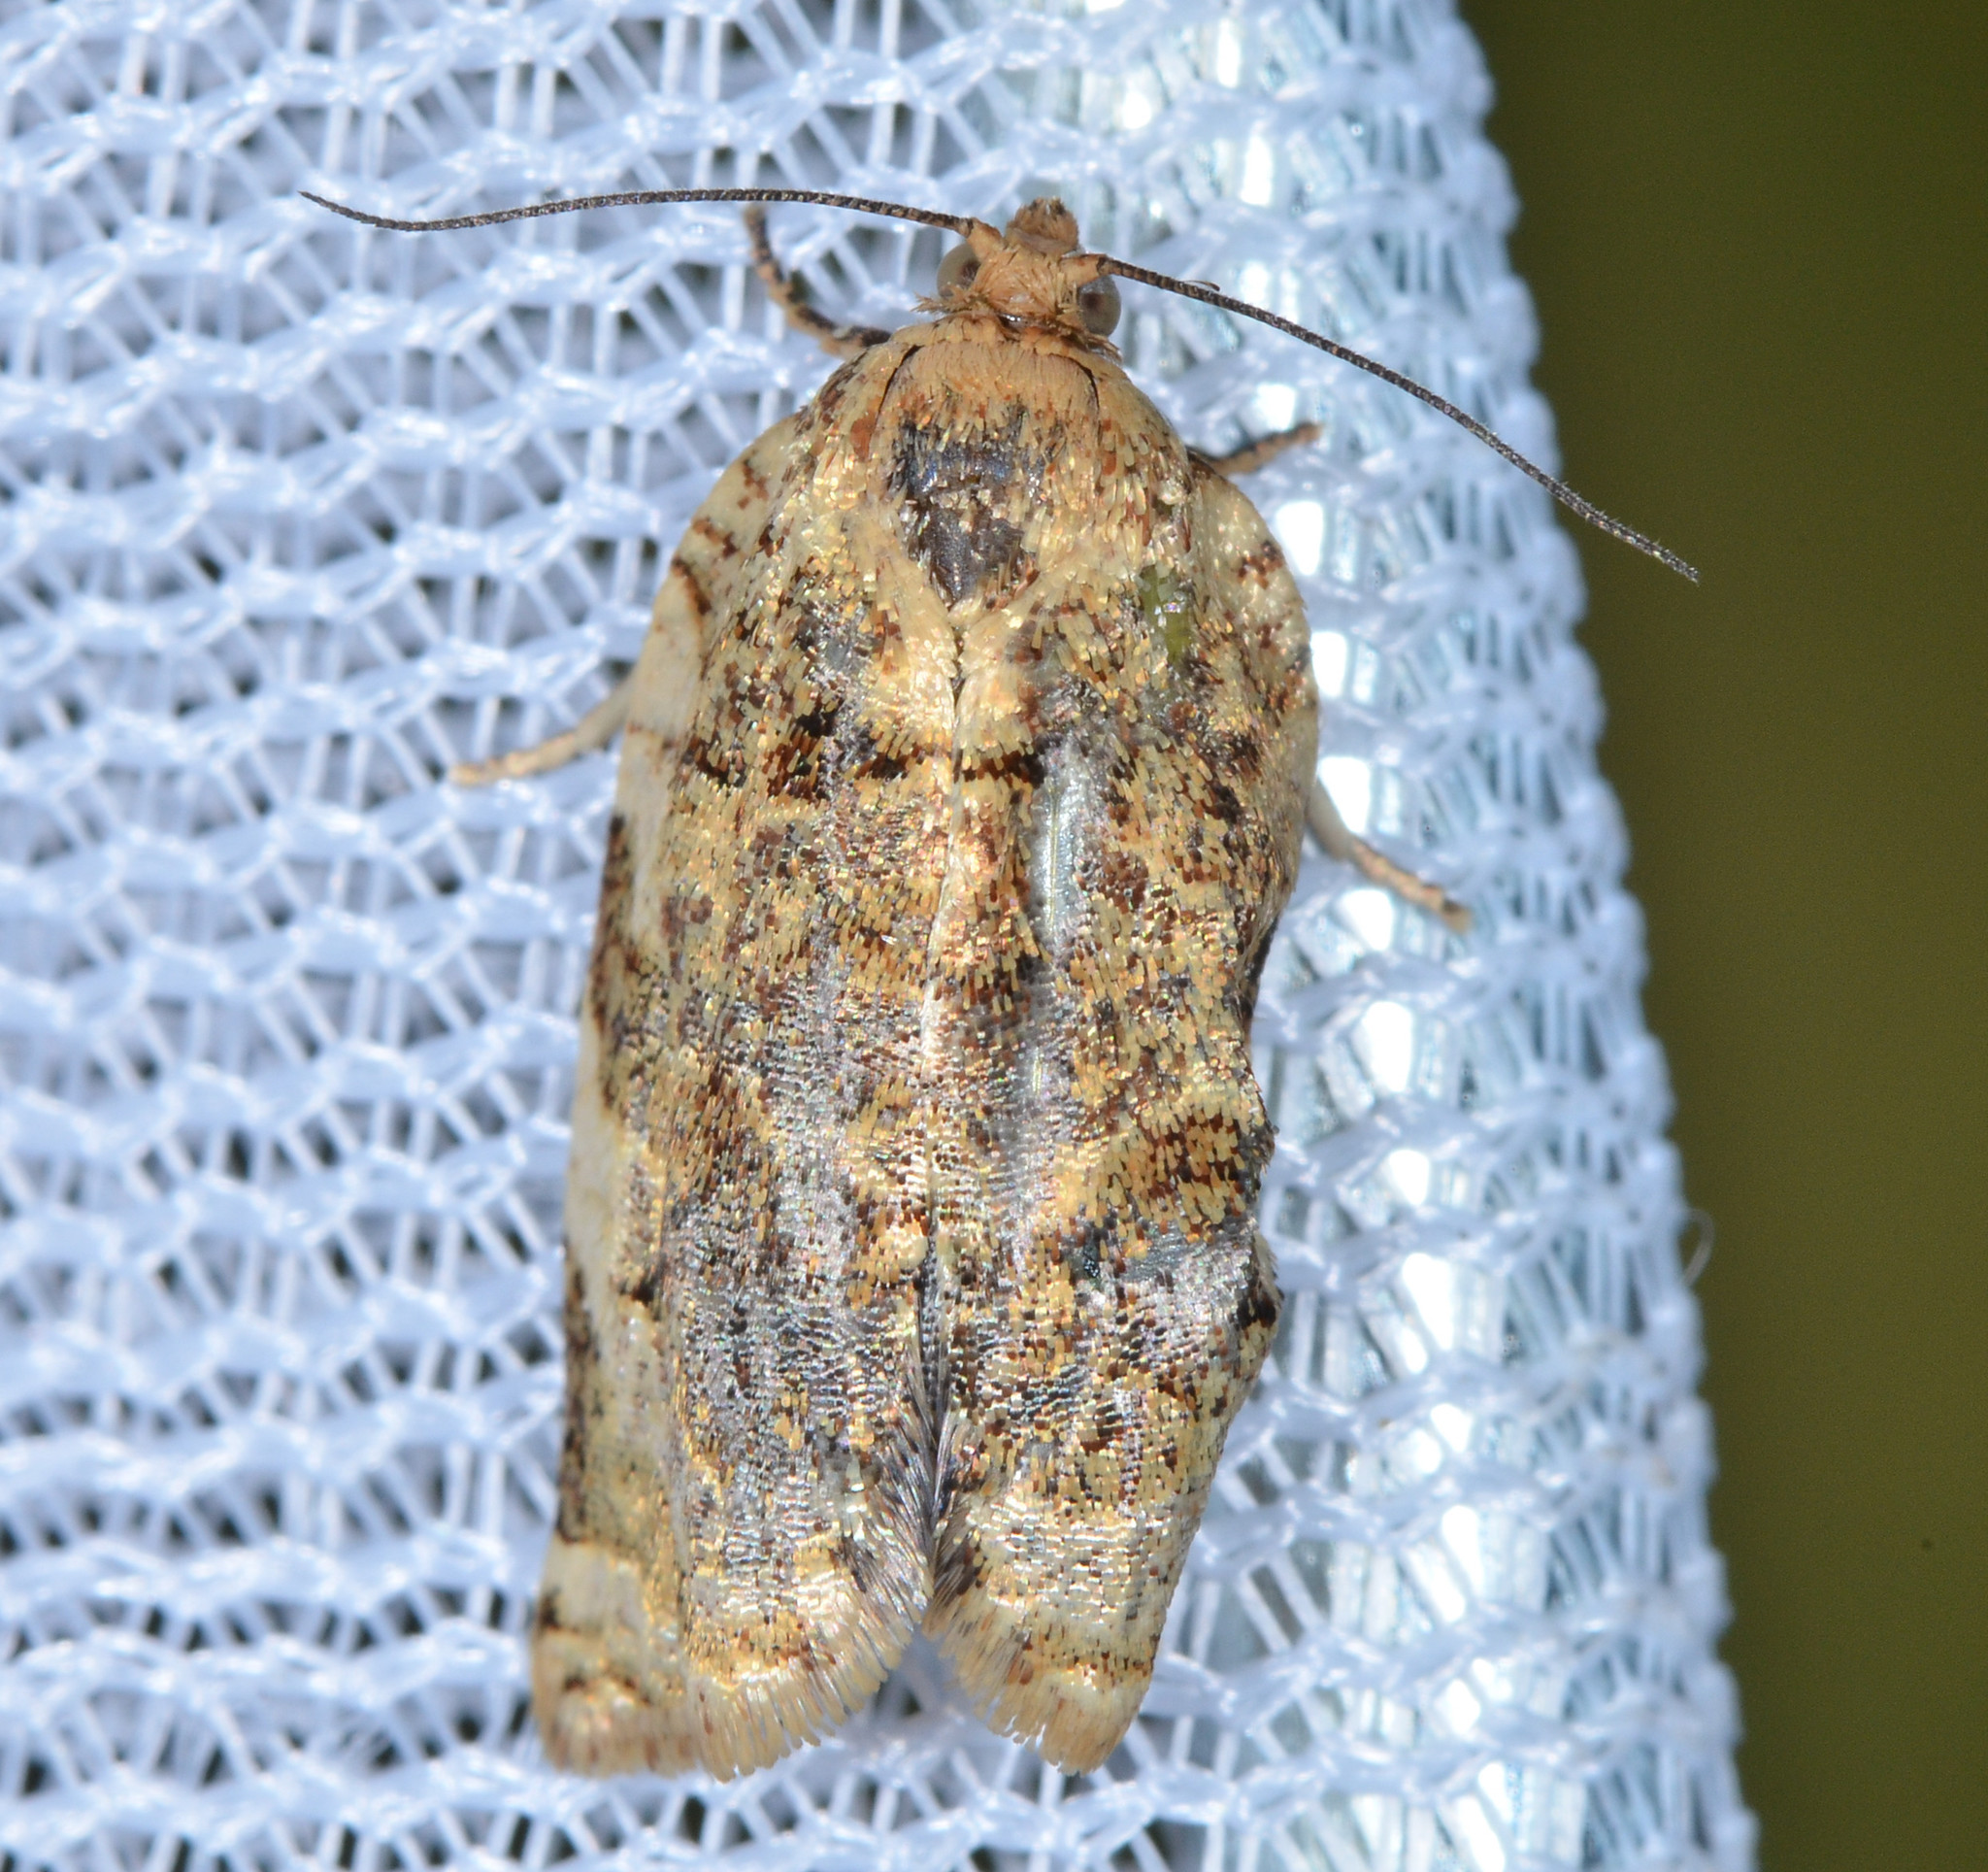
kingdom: Animalia
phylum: Arthropoda
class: Insecta
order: Lepidoptera
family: Tortricidae
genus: Archips
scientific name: Archips argyrospila
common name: Fruit-tree leafroller moth
